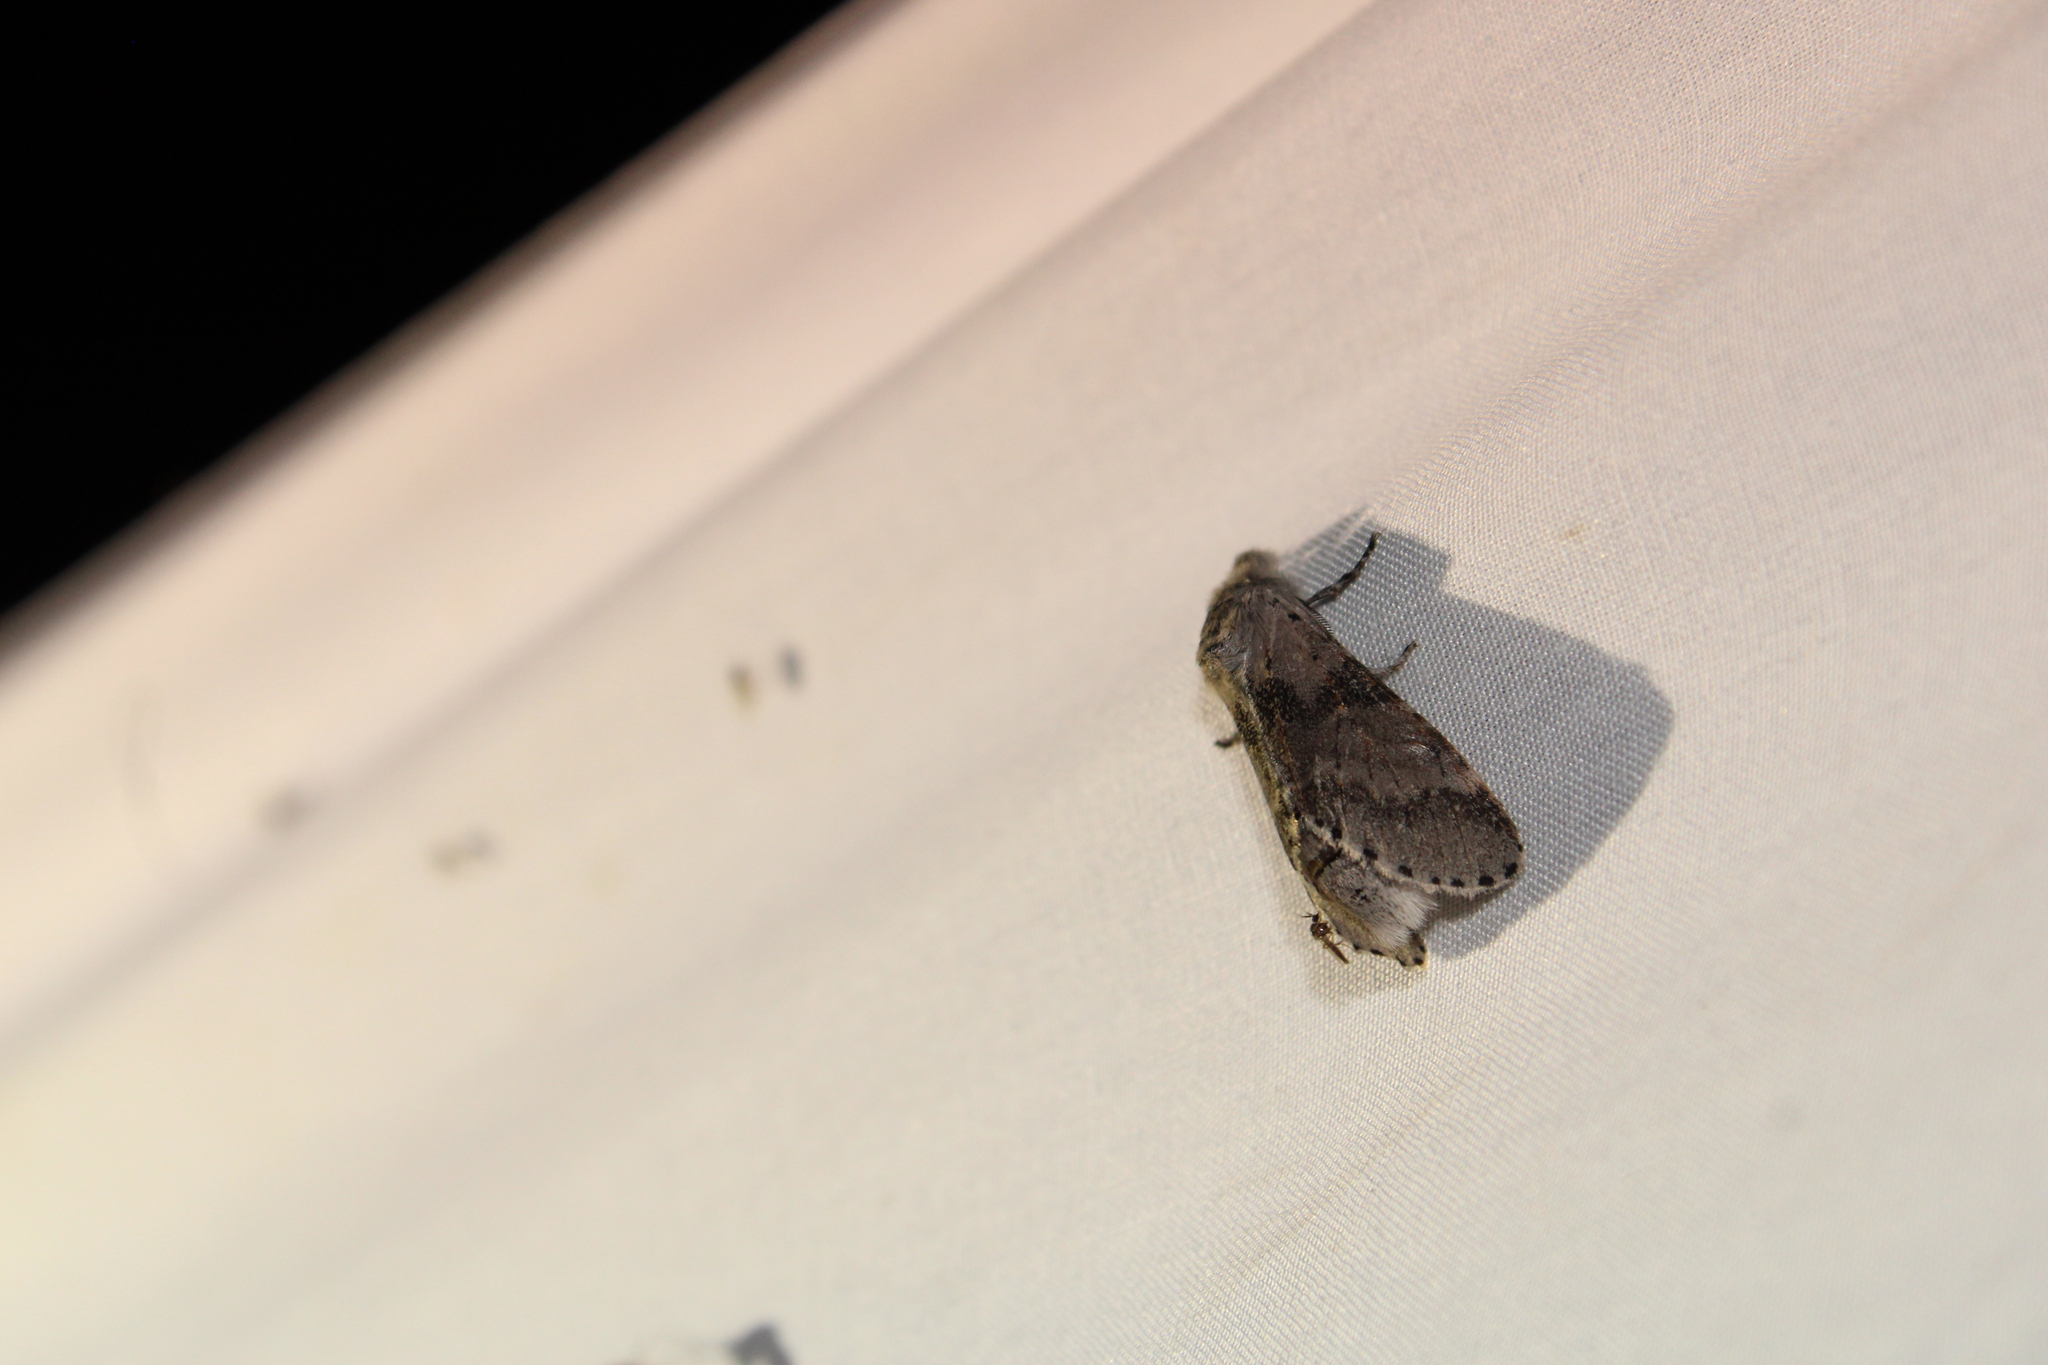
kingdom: Animalia
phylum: Arthropoda
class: Insecta
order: Lepidoptera
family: Notodontidae
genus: Furcula
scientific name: Furcula cinerea
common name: Gray furcula
